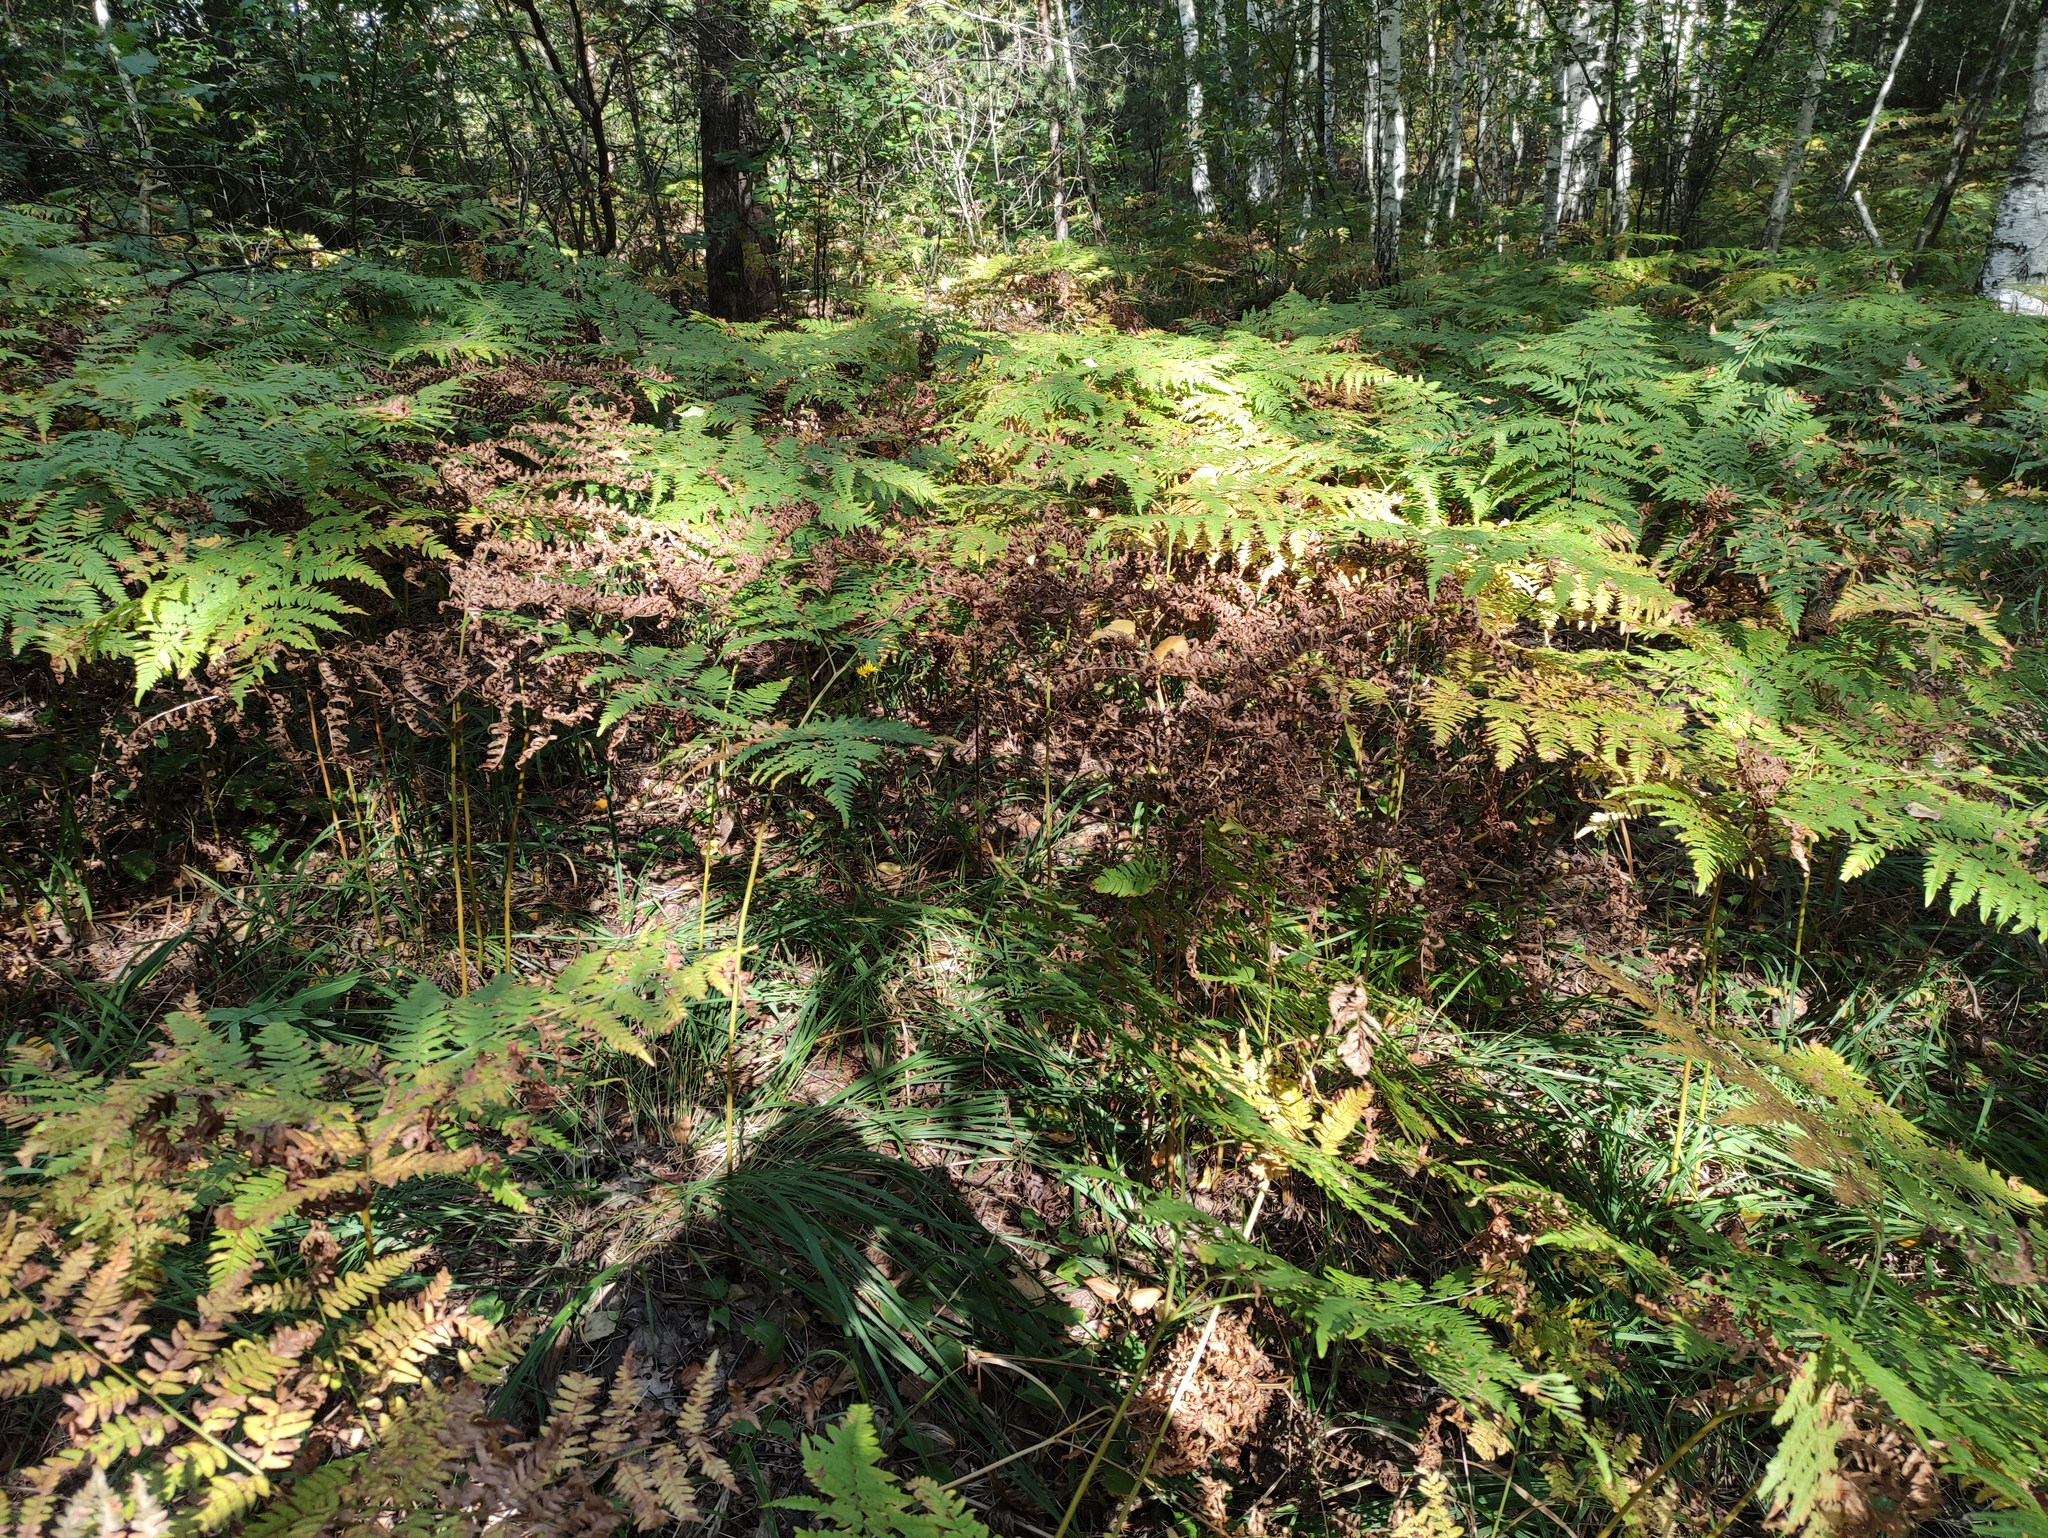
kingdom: Plantae
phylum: Tracheophyta
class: Polypodiopsida
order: Polypodiales
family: Dennstaedtiaceae
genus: Pteridium
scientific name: Pteridium aquilinum
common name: Bracken
